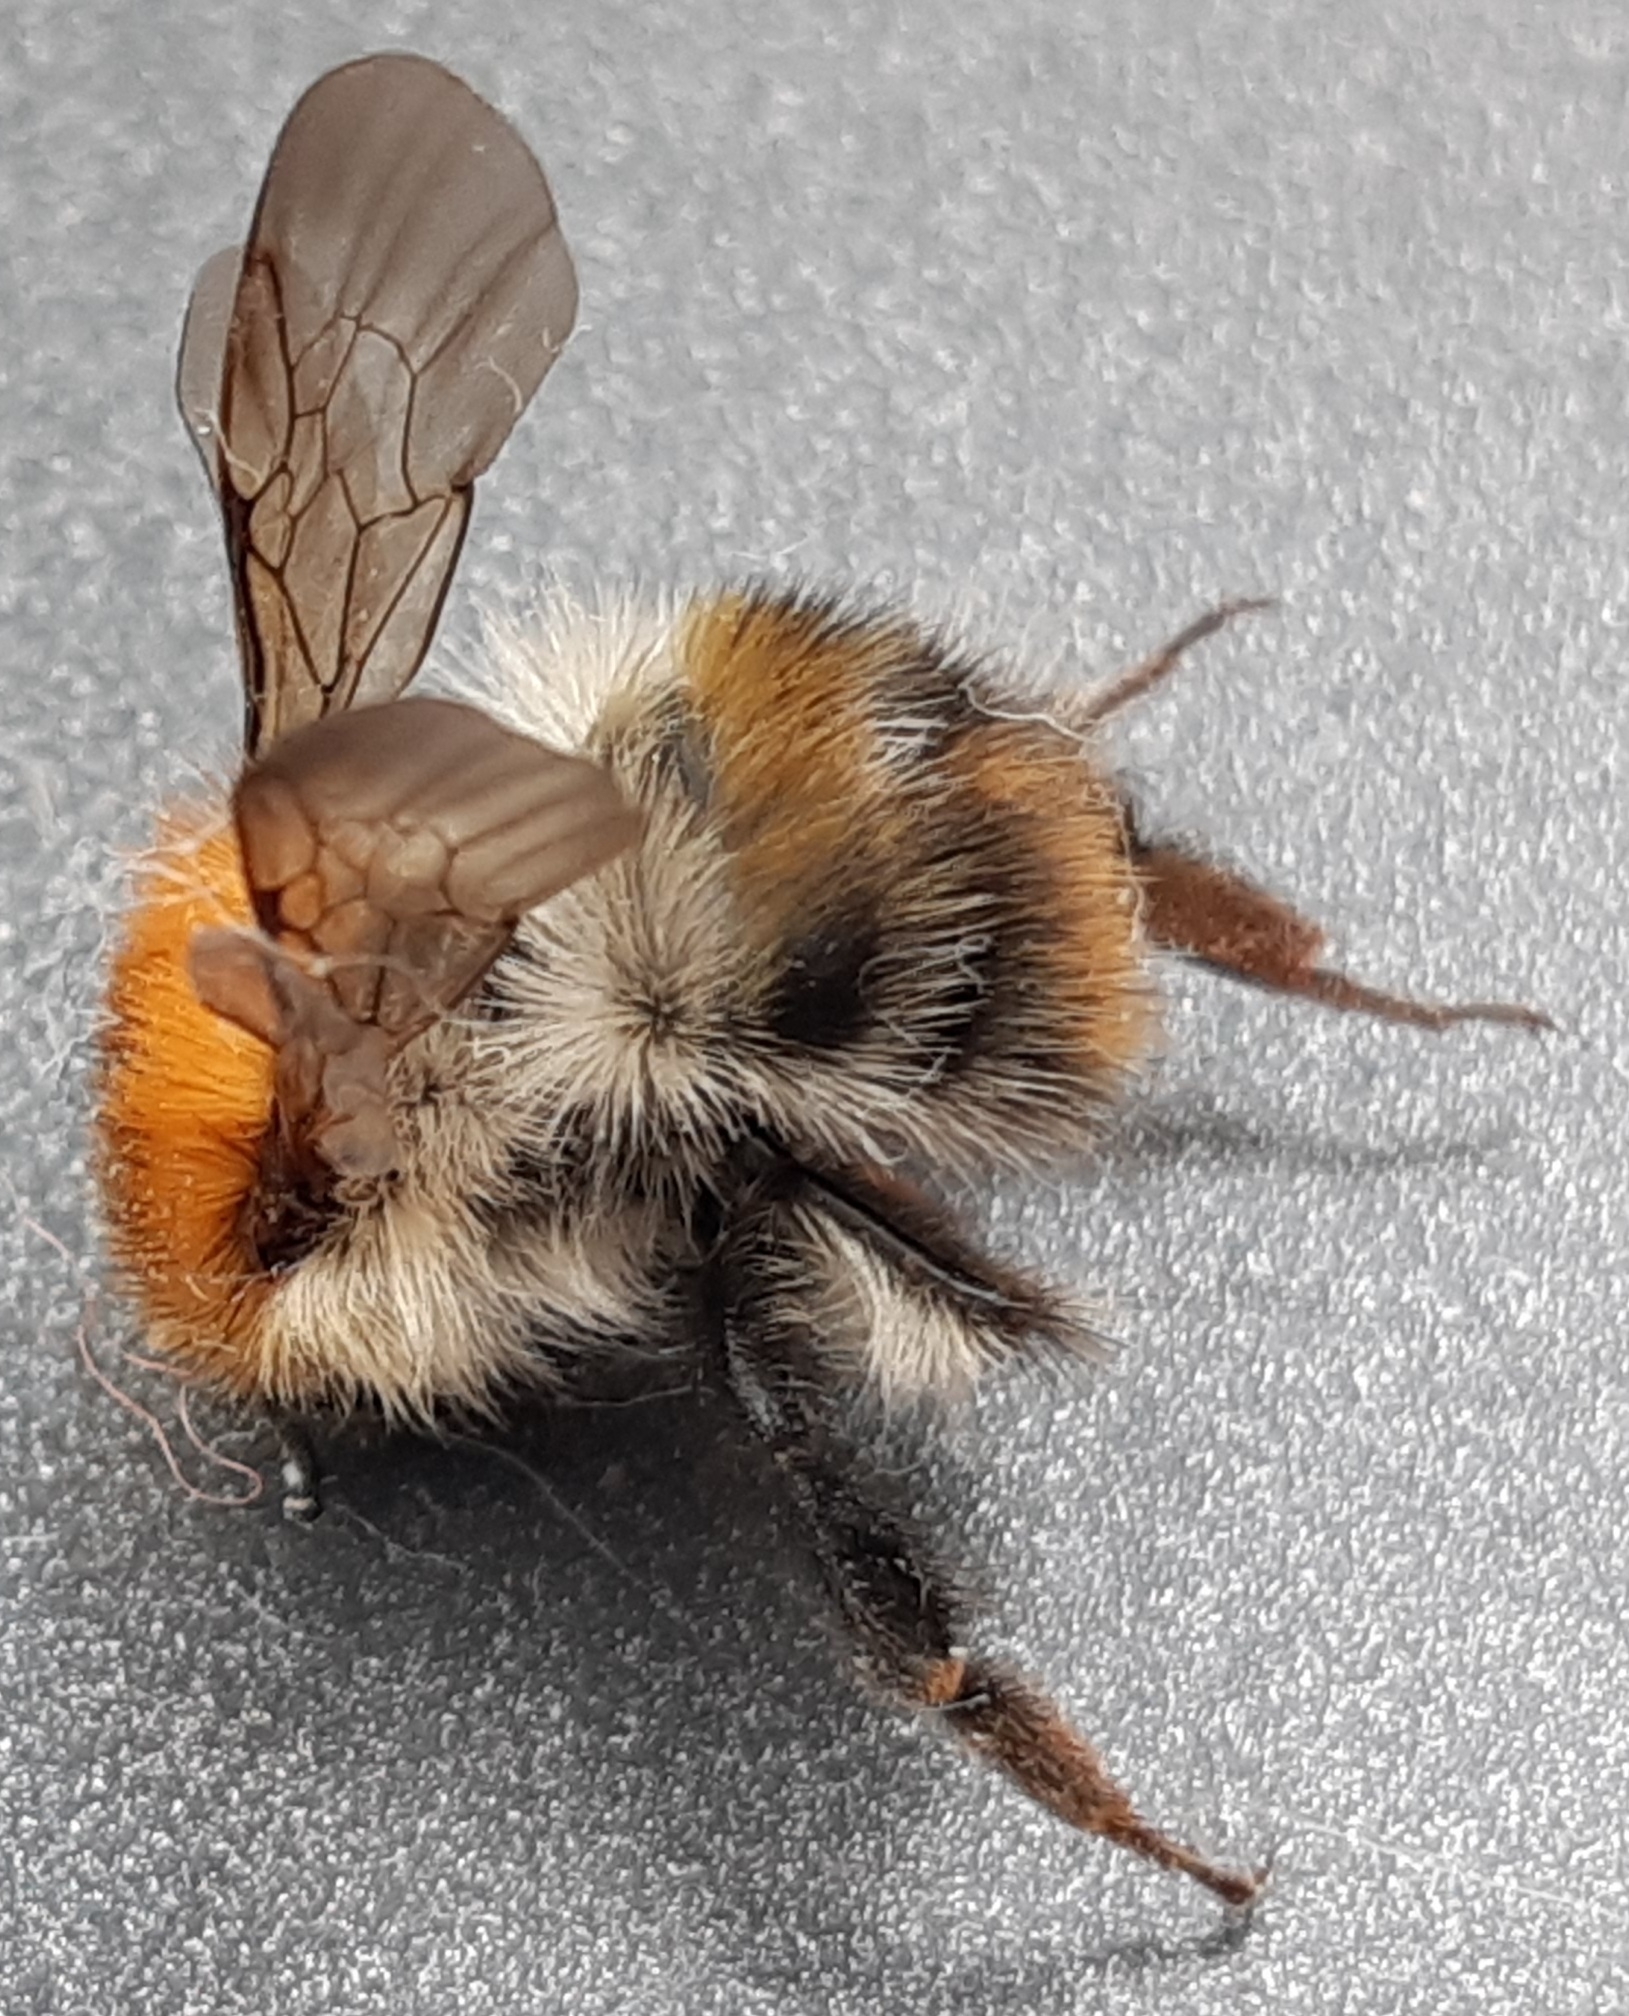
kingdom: Animalia
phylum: Arthropoda
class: Insecta
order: Hymenoptera
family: Apidae
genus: Bombus
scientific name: Bombus pascuorum
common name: Common carder bee
